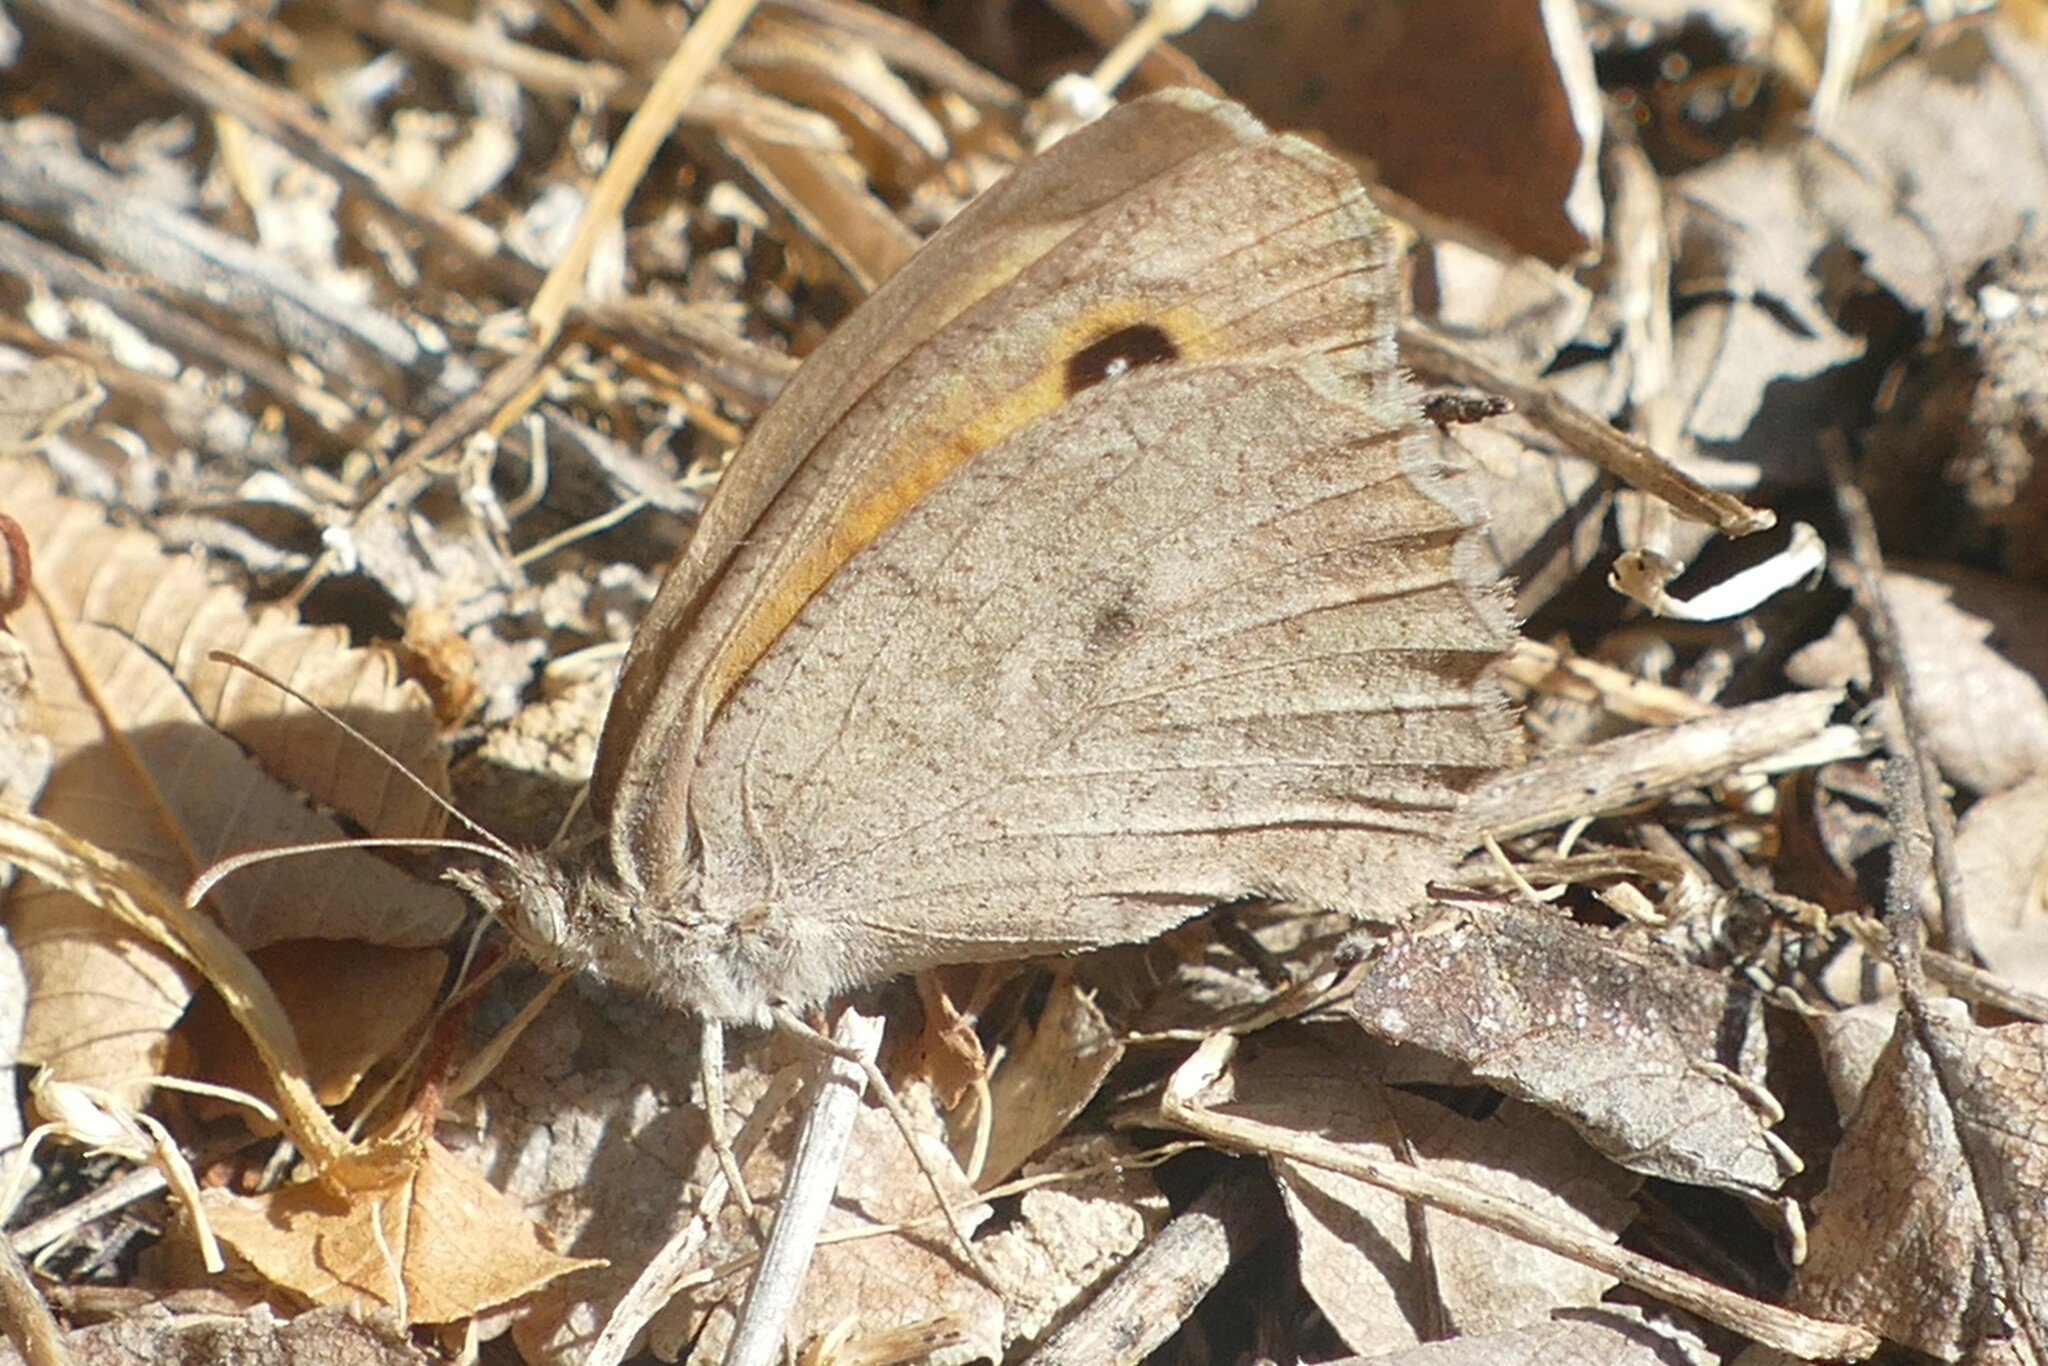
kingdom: Animalia
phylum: Arthropoda
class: Insecta
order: Lepidoptera
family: Nymphalidae
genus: Hyponephele
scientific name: Hyponephele lupinus
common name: Oriental meadow brown
